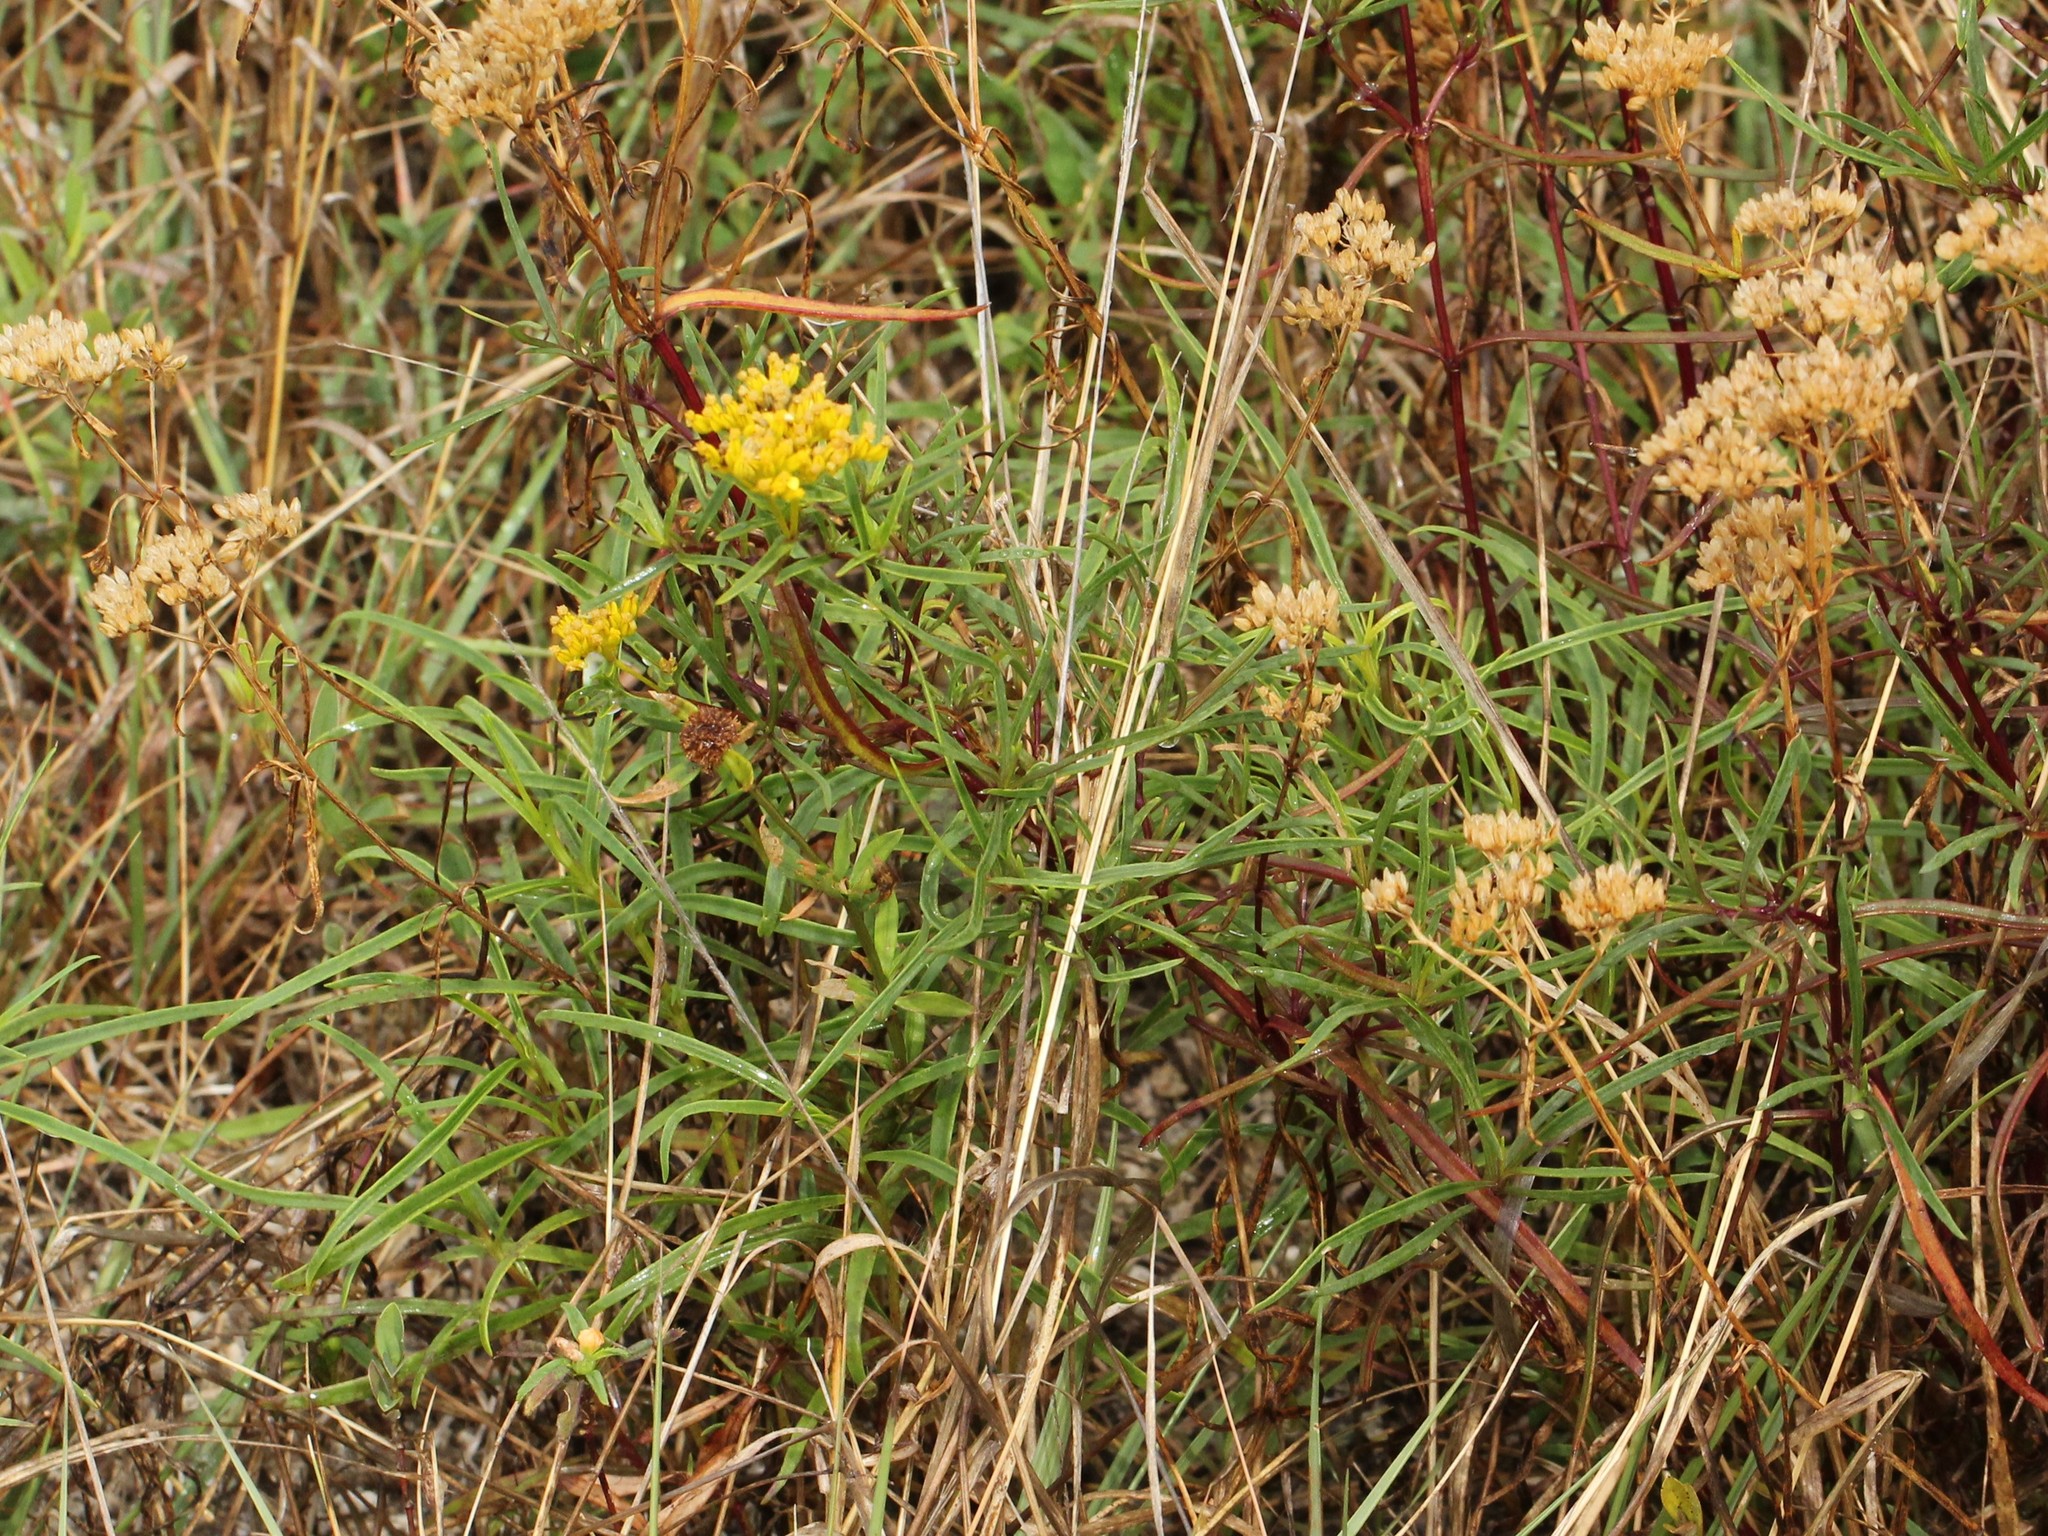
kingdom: Plantae
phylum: Tracheophyta
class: Magnoliopsida
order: Asterales
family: Asteraceae
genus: Flaveria
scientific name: Flaveria linearis
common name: Yellowtop
